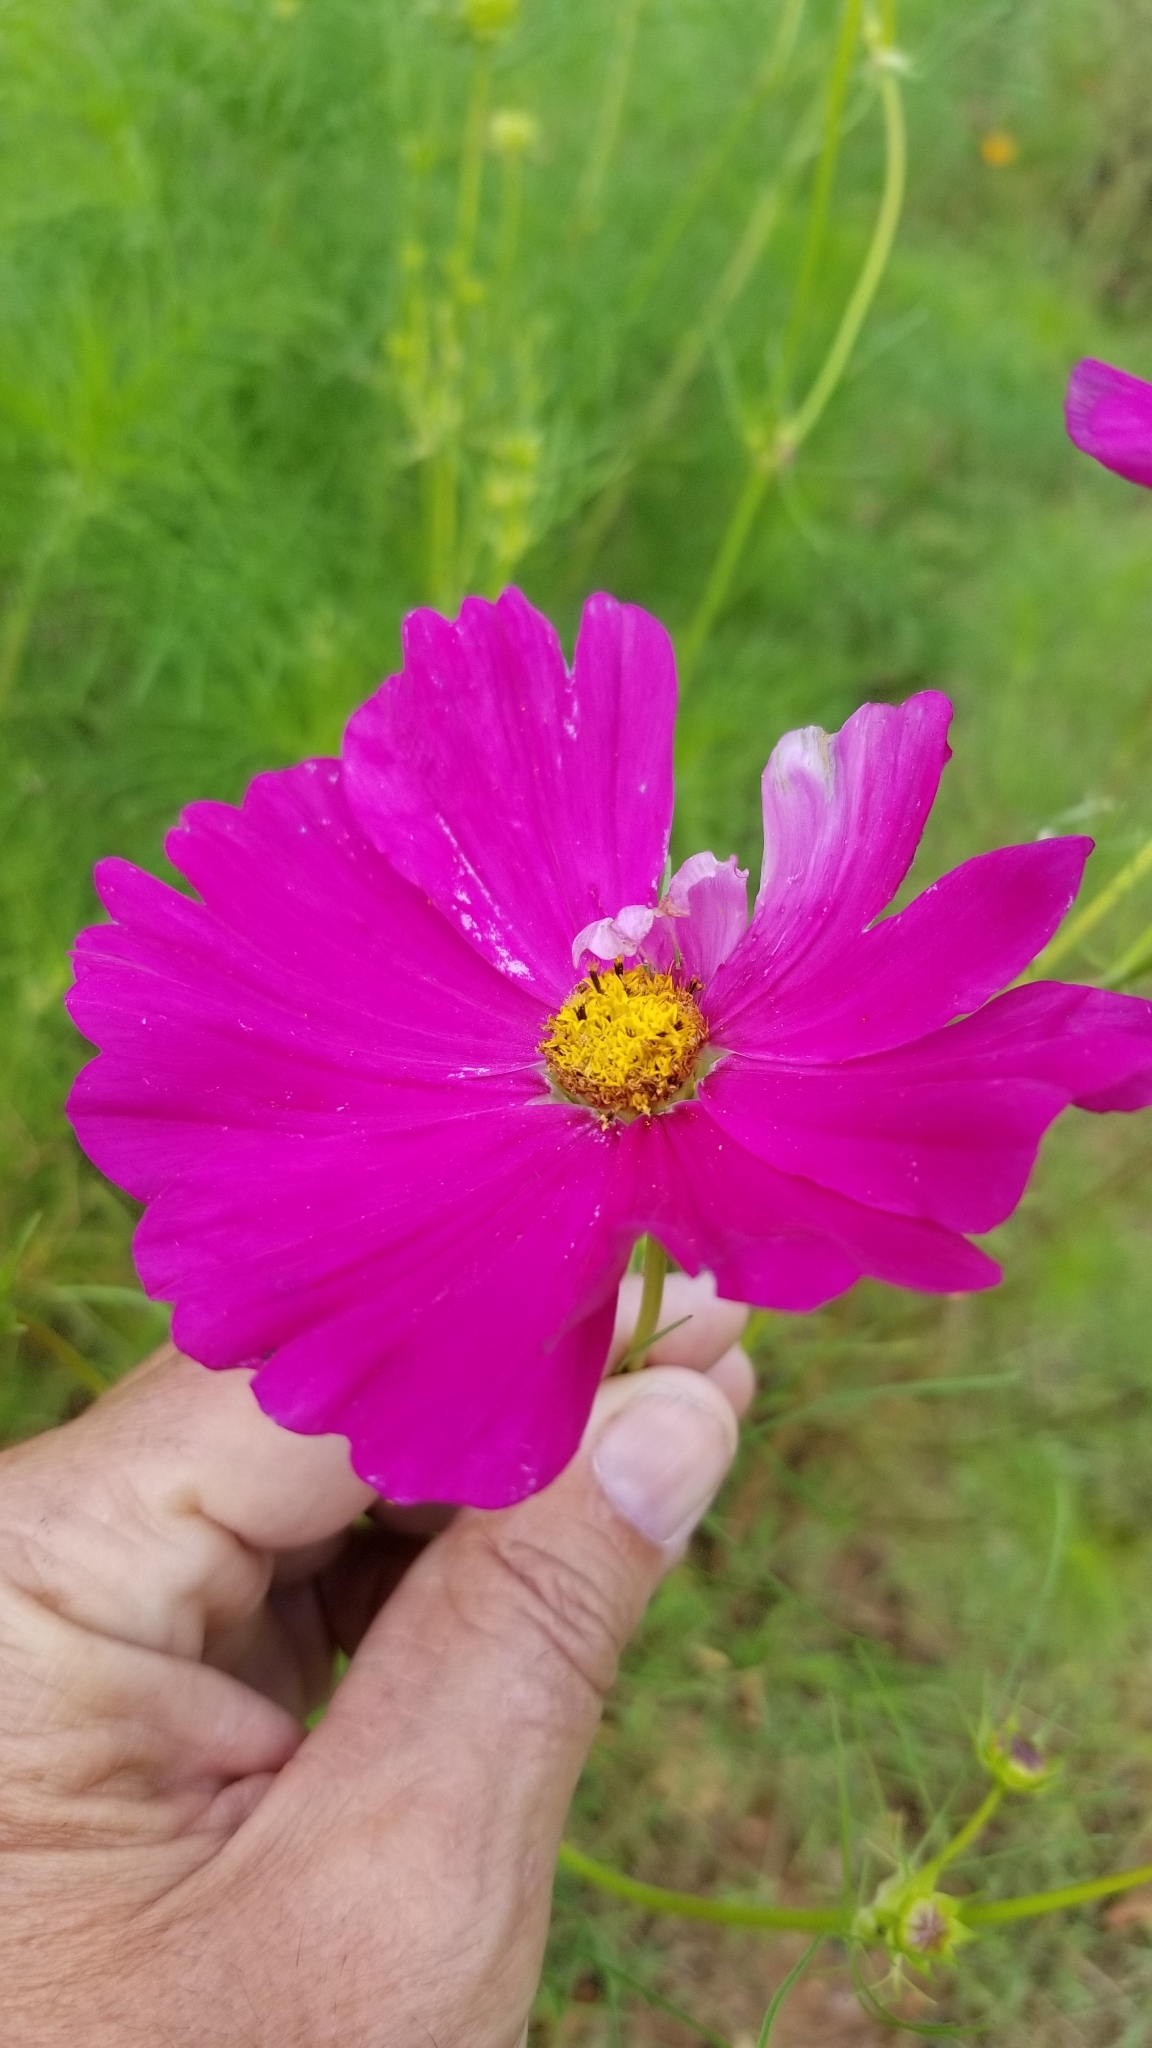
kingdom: Plantae
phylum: Tracheophyta
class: Magnoliopsida
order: Asterales
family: Asteraceae
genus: Cosmos
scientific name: Cosmos bipinnatus
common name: Garden cosmos
